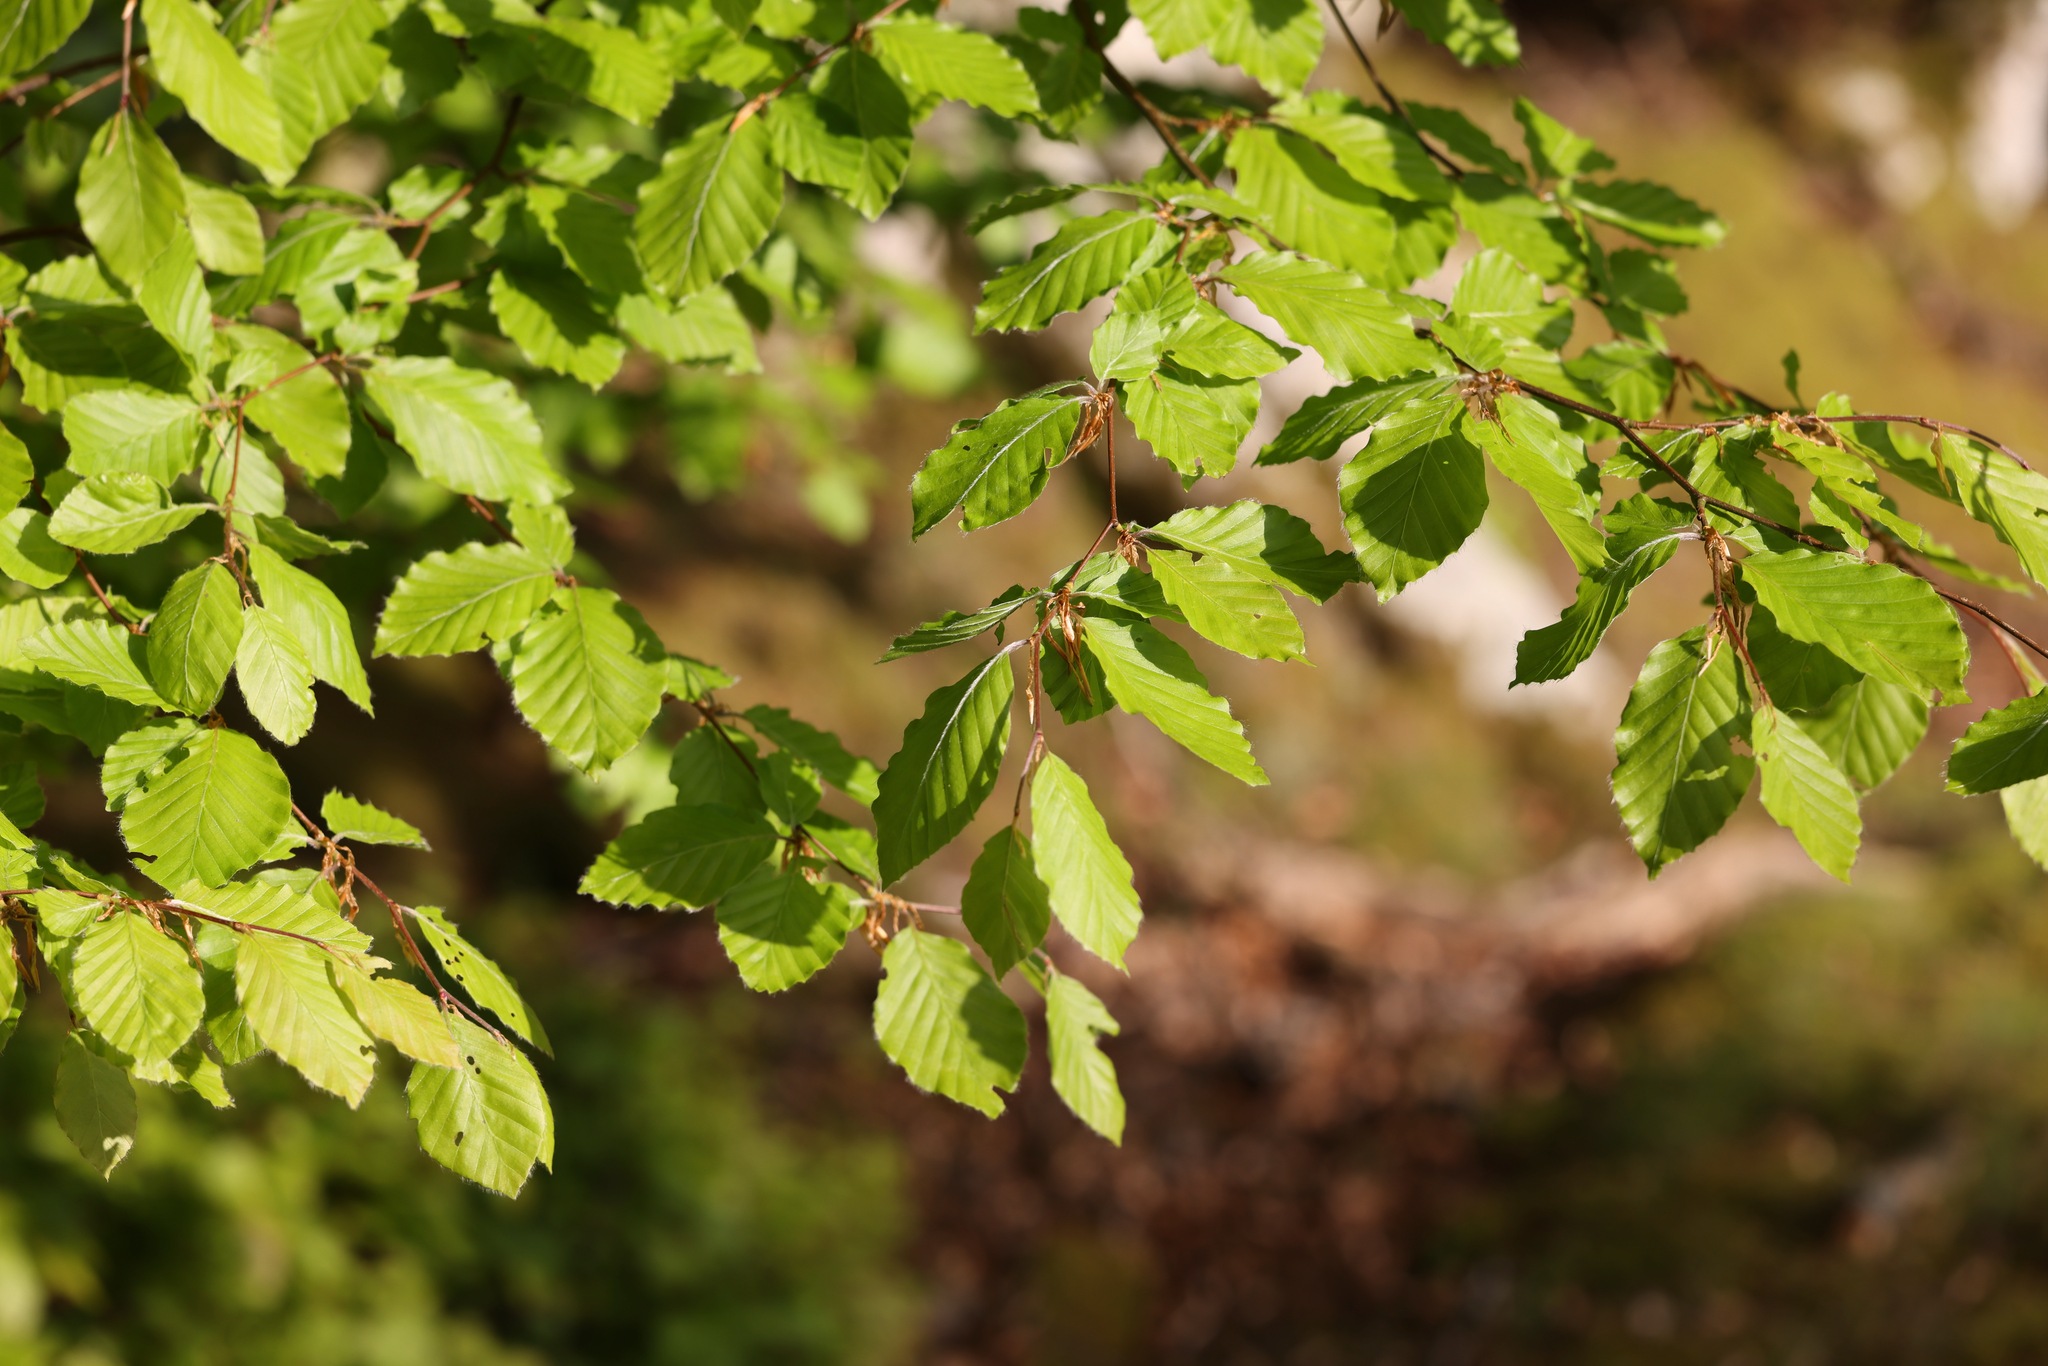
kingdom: Plantae
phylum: Tracheophyta
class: Magnoliopsida
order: Fagales
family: Fagaceae
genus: Fagus
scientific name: Fagus sylvatica
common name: Beech
